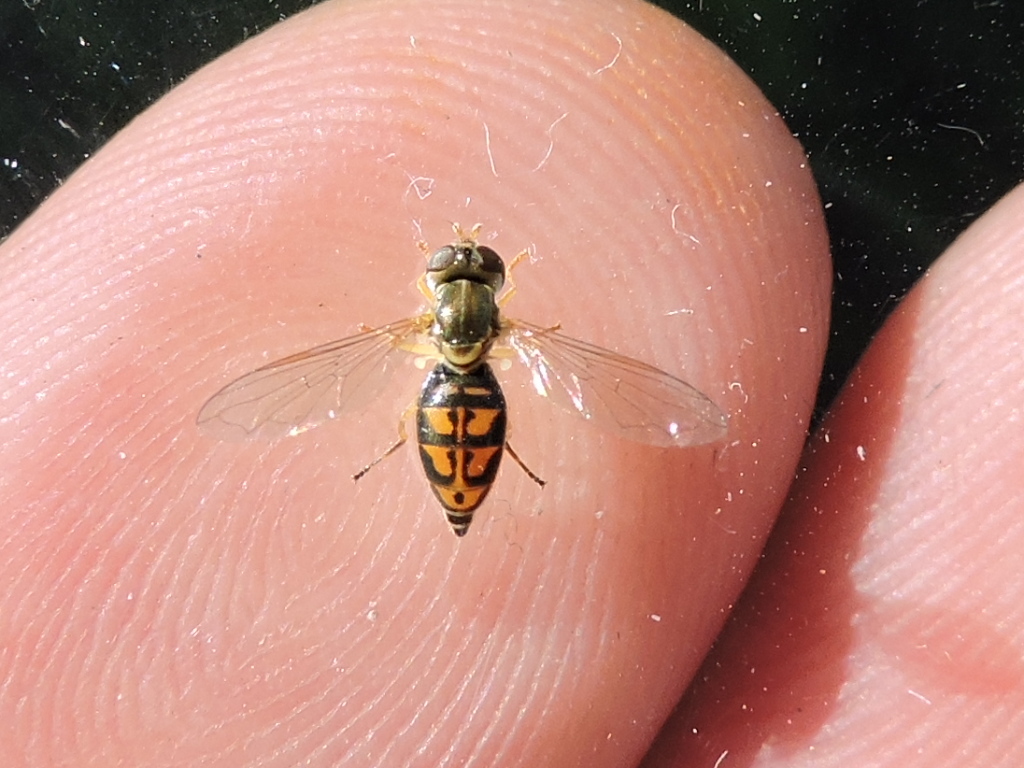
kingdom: Animalia
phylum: Arthropoda
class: Insecta
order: Diptera
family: Syrphidae
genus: Toxomerus
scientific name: Toxomerus marginatus
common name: Syrphid fly
